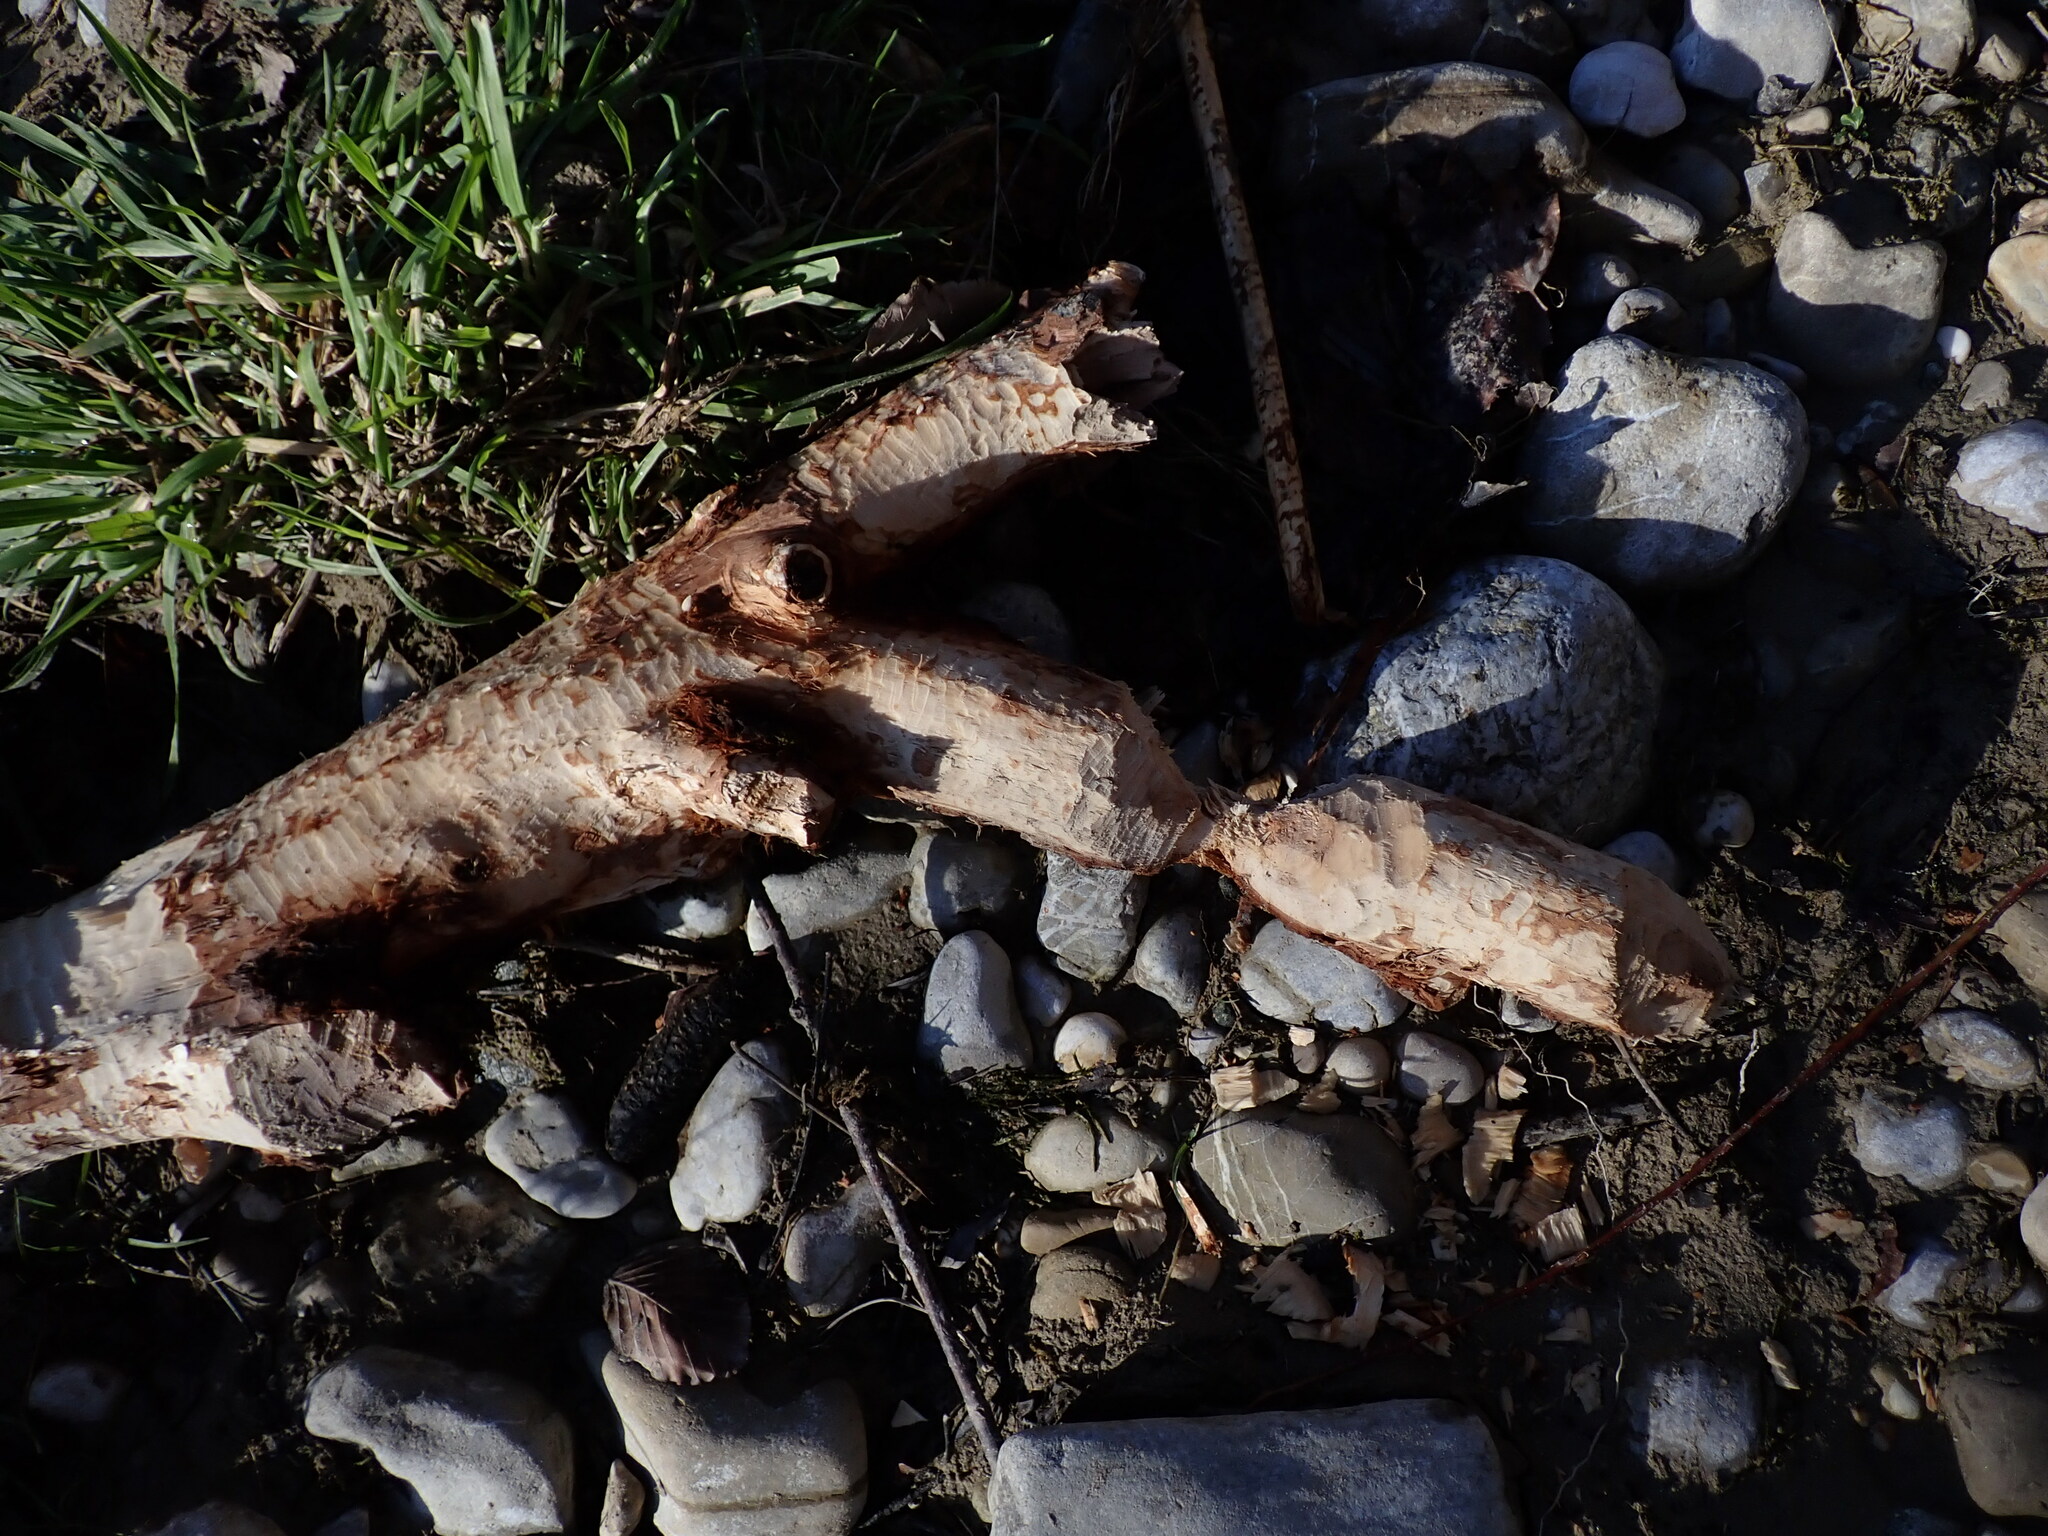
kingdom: Animalia
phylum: Chordata
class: Mammalia
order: Rodentia
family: Castoridae
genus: Castor
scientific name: Castor fiber
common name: Eurasian beaver
